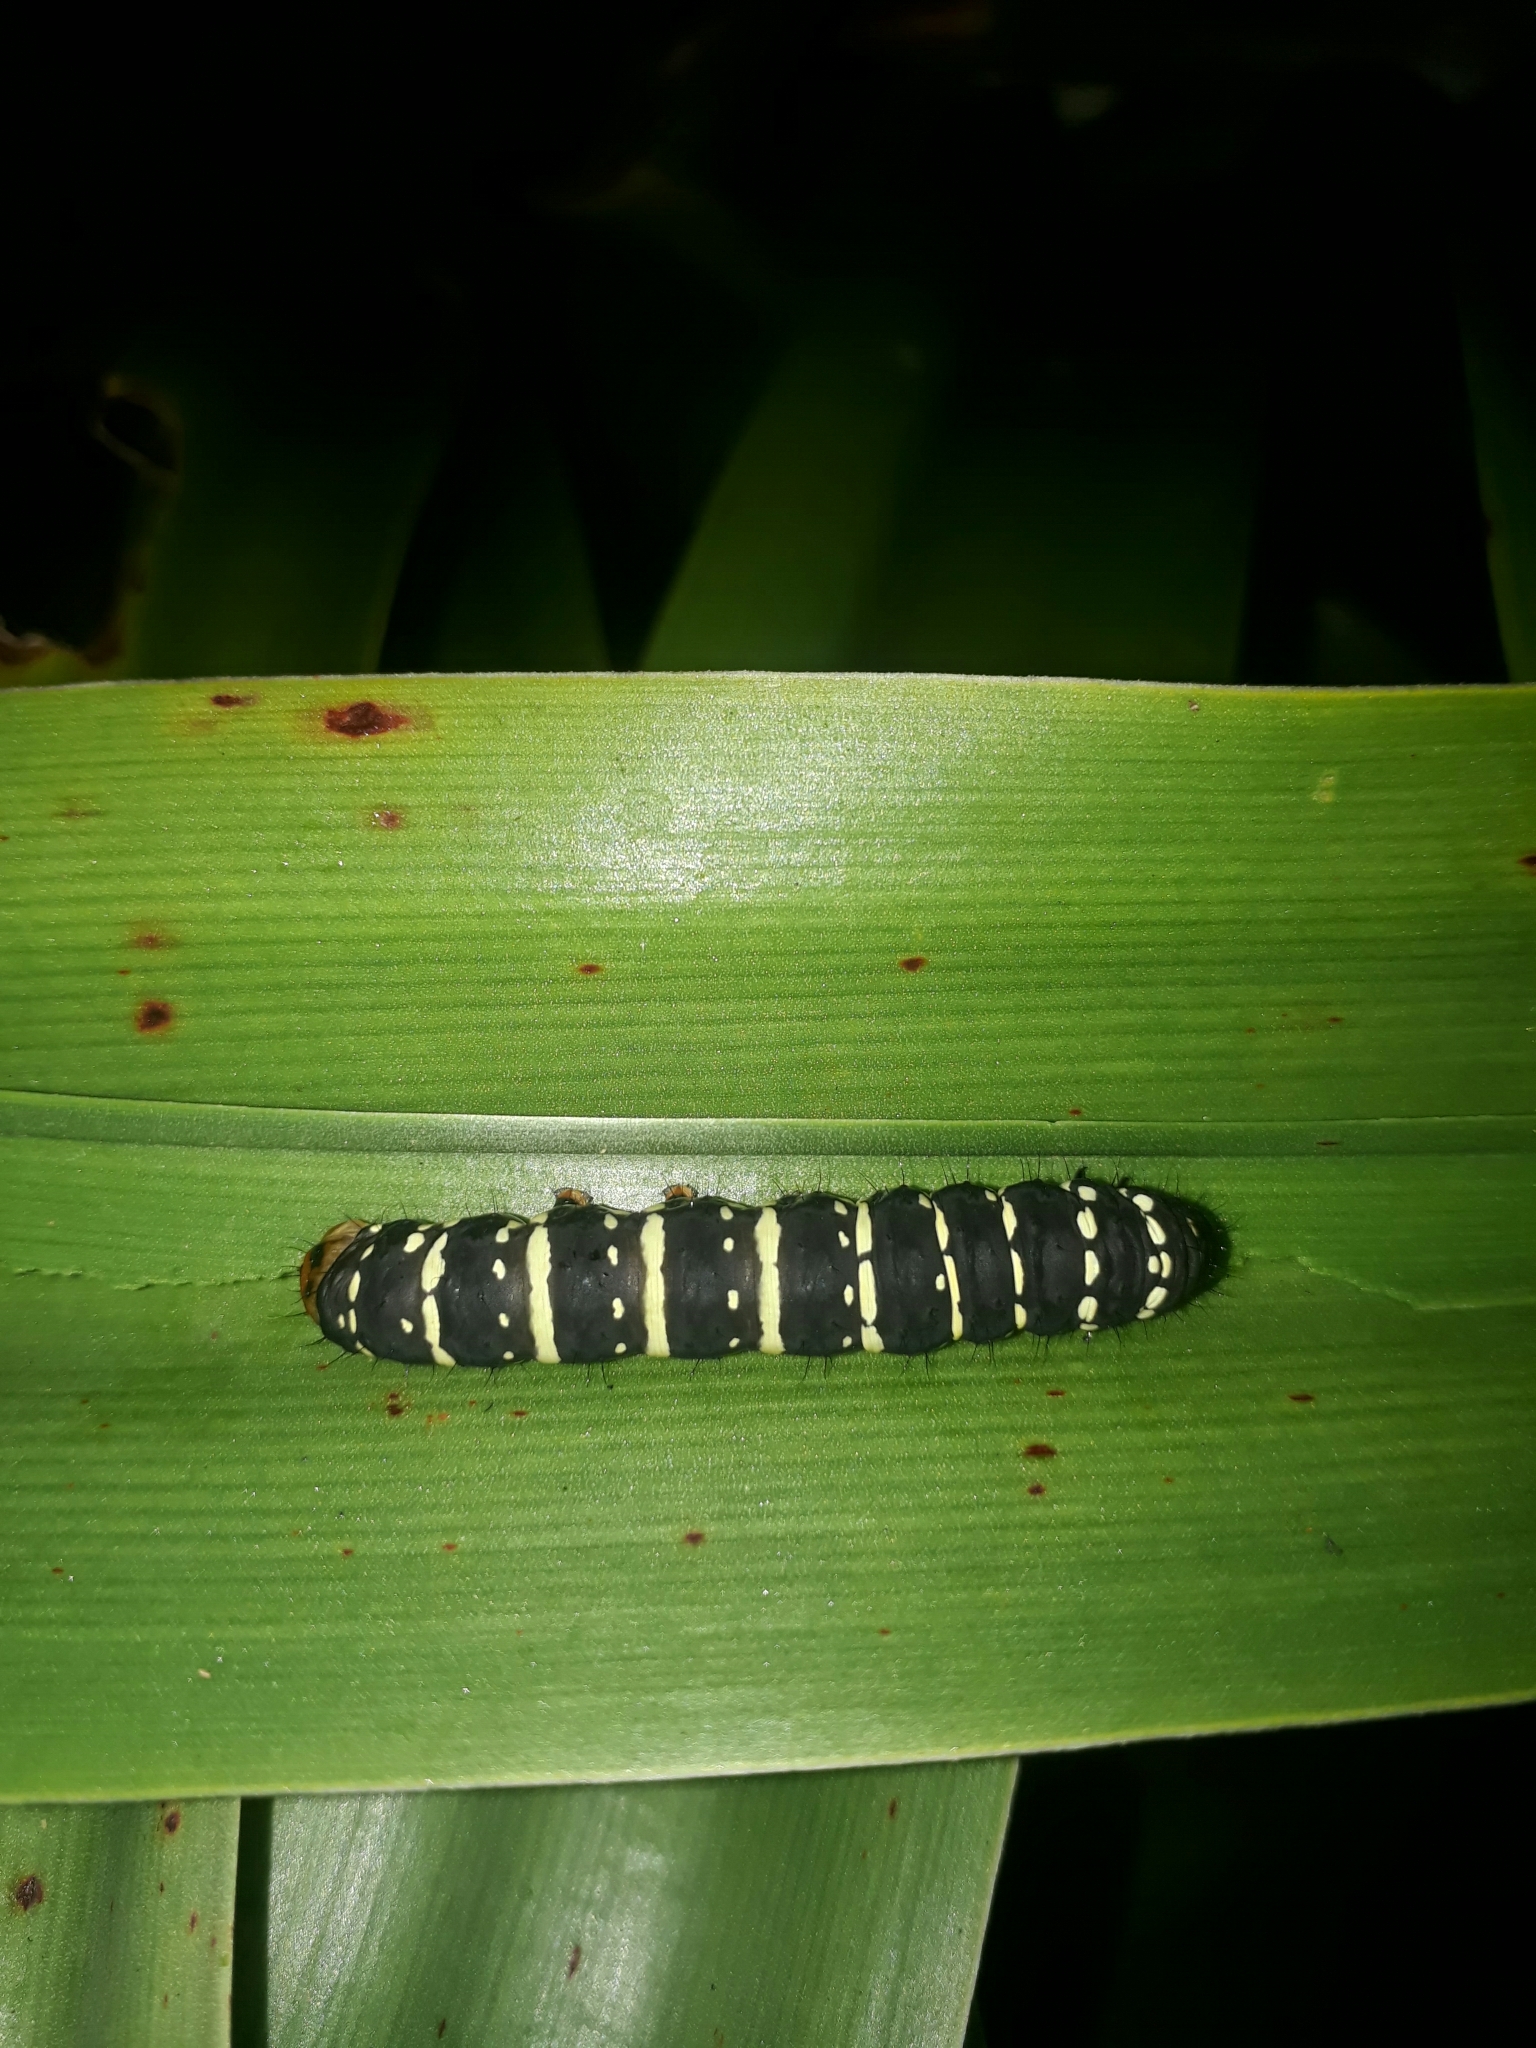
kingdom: Animalia
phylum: Arthropoda
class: Insecta
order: Lepidoptera
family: Noctuidae
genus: Xanthopastis
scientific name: Xanthopastis moctezuma
